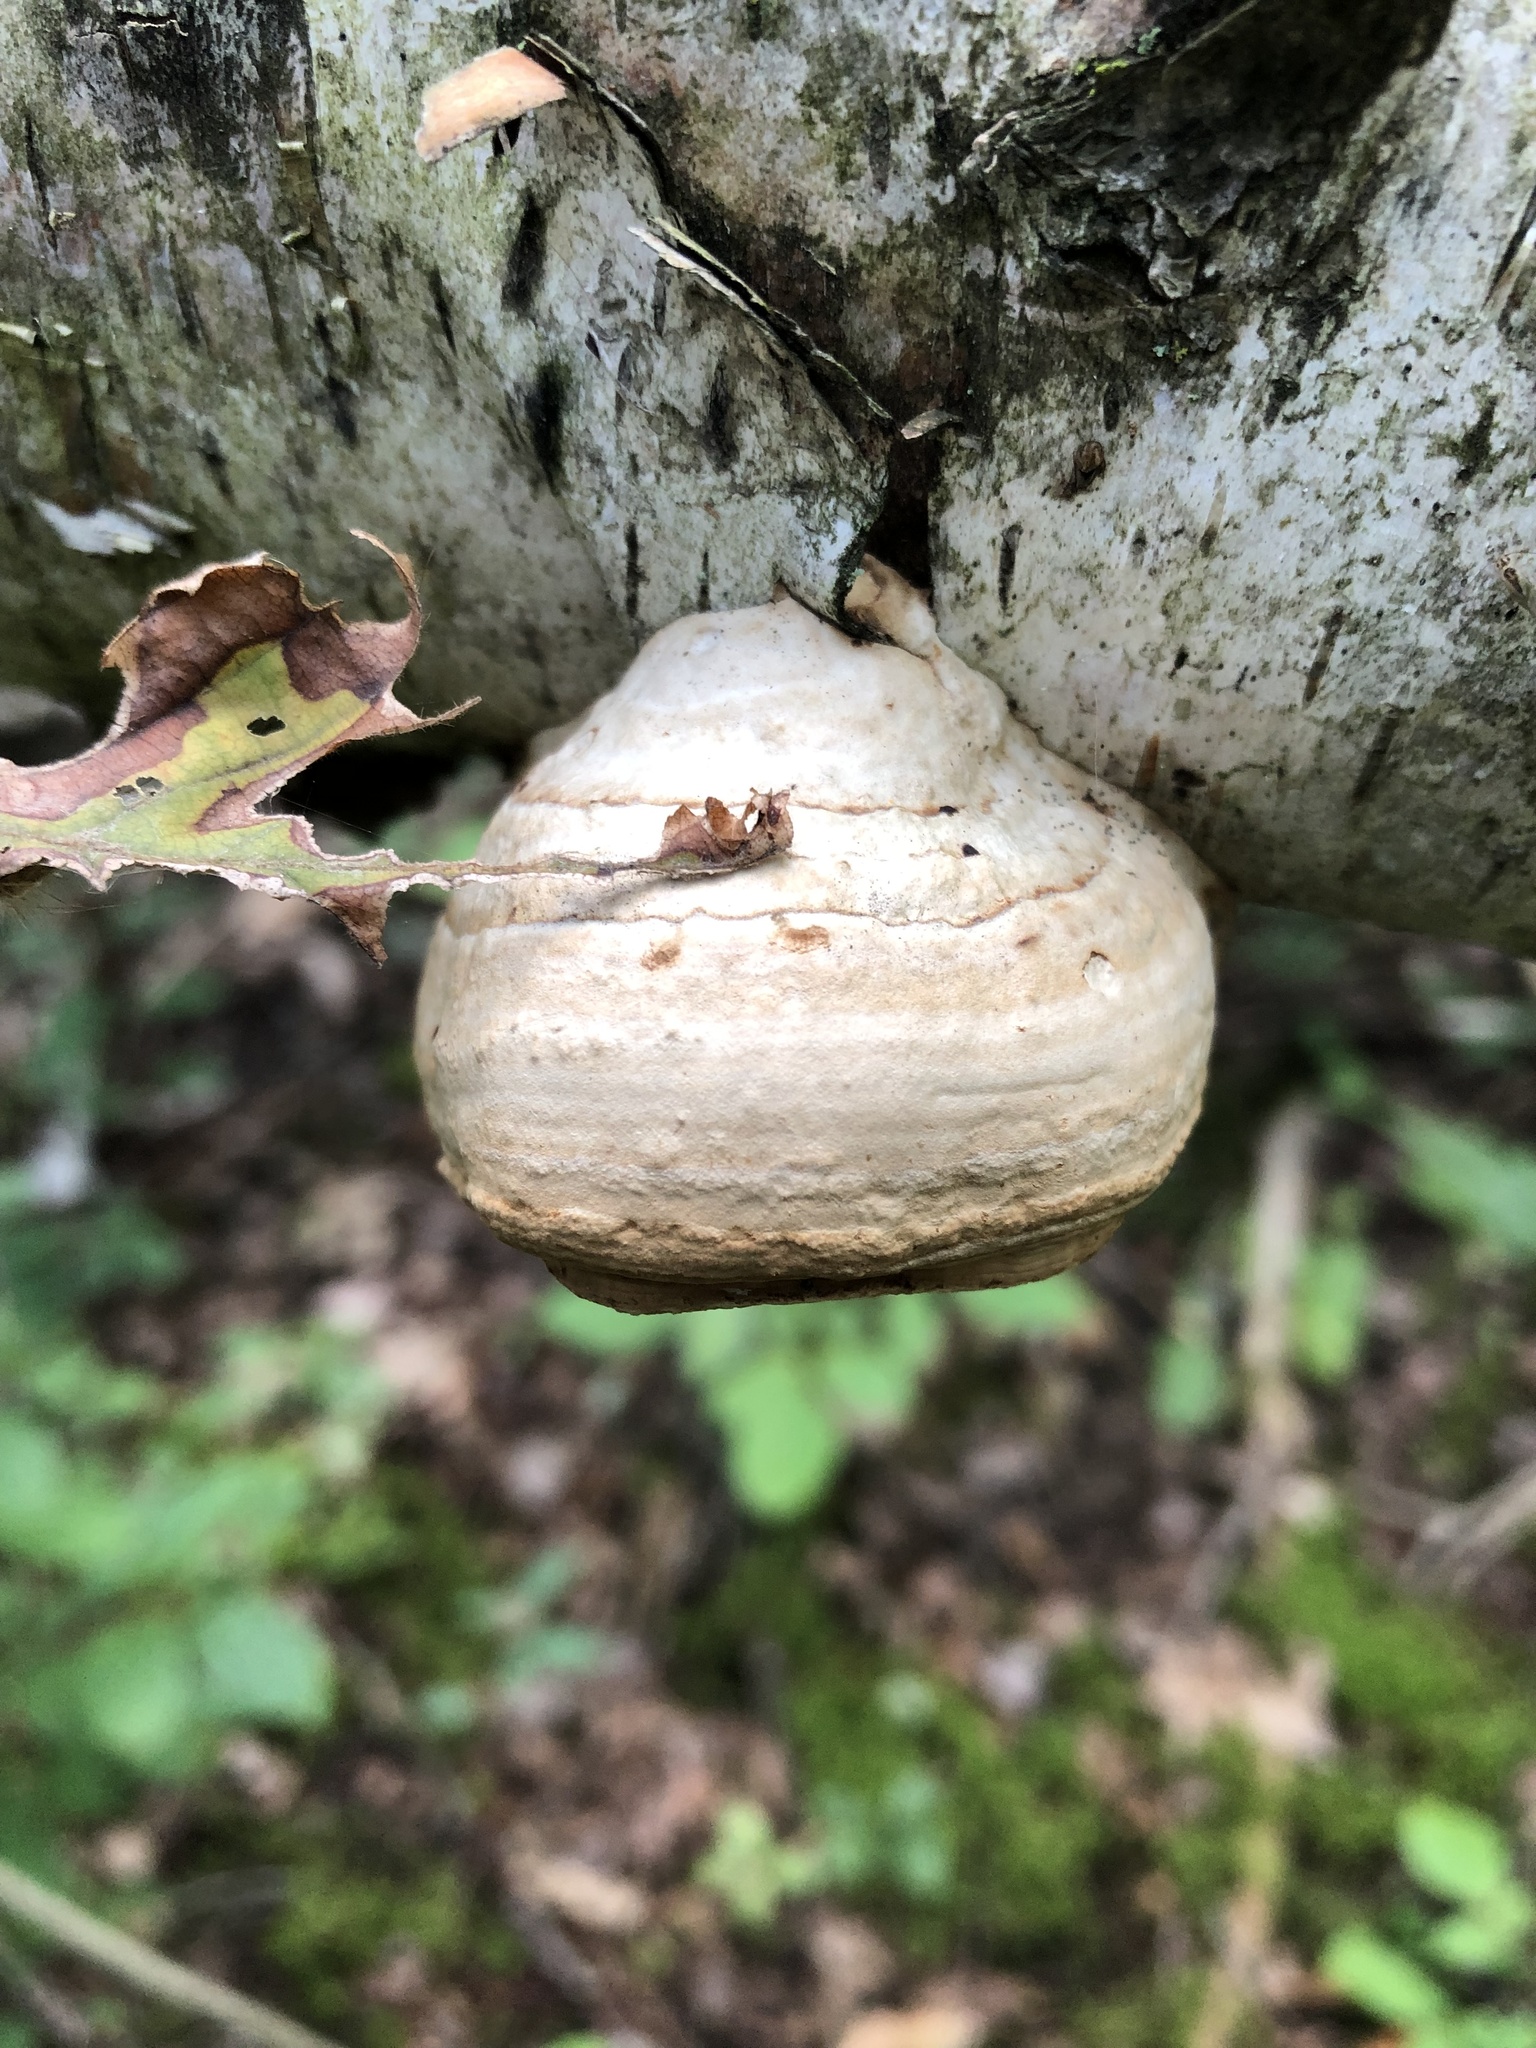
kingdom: Fungi
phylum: Basidiomycota
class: Agaricomycetes
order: Polyporales
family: Polyporaceae
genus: Fomes
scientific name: Fomes fomentarius
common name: Hoof fungus
